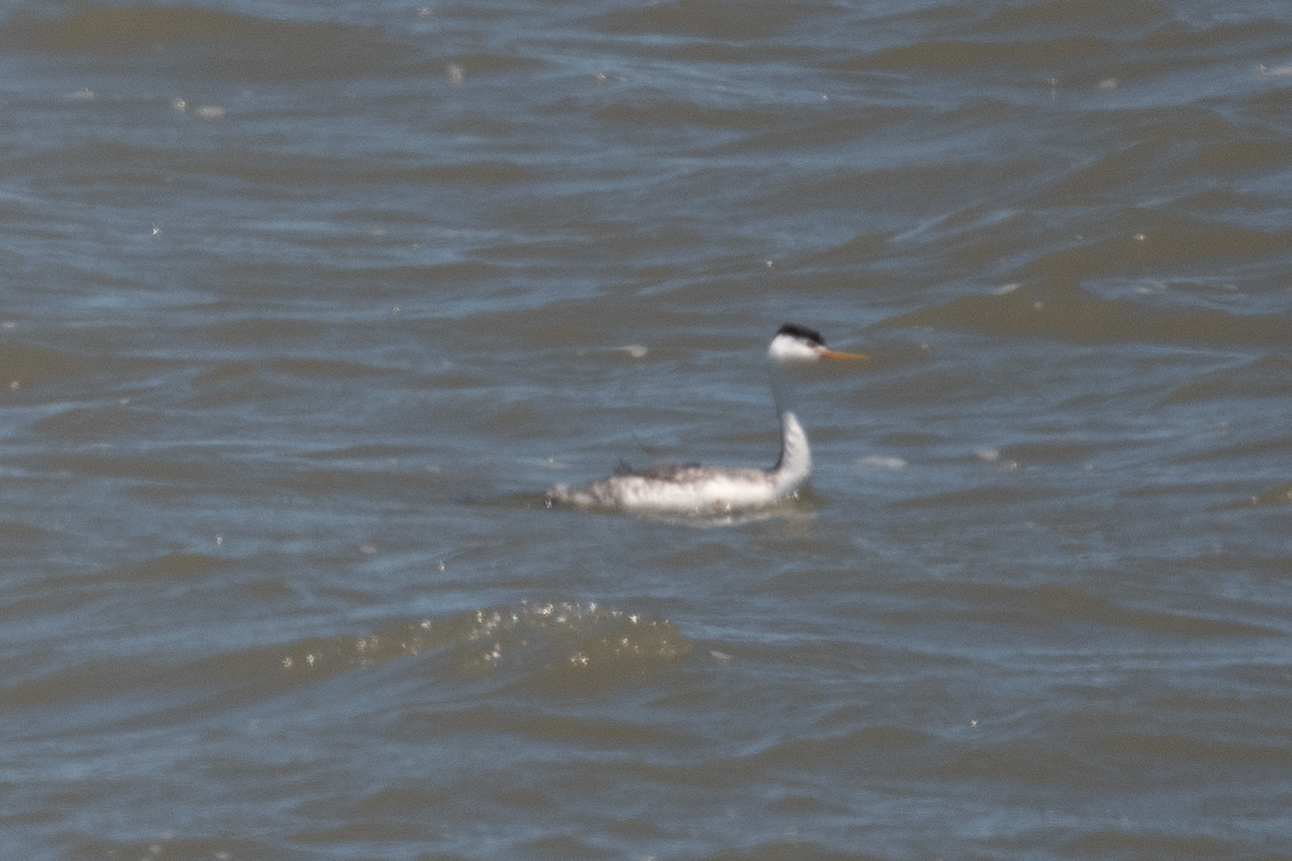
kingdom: Animalia
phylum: Chordata
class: Aves
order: Podicipediformes
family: Podicipedidae
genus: Aechmophorus
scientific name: Aechmophorus clarkii
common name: Clark's grebe
